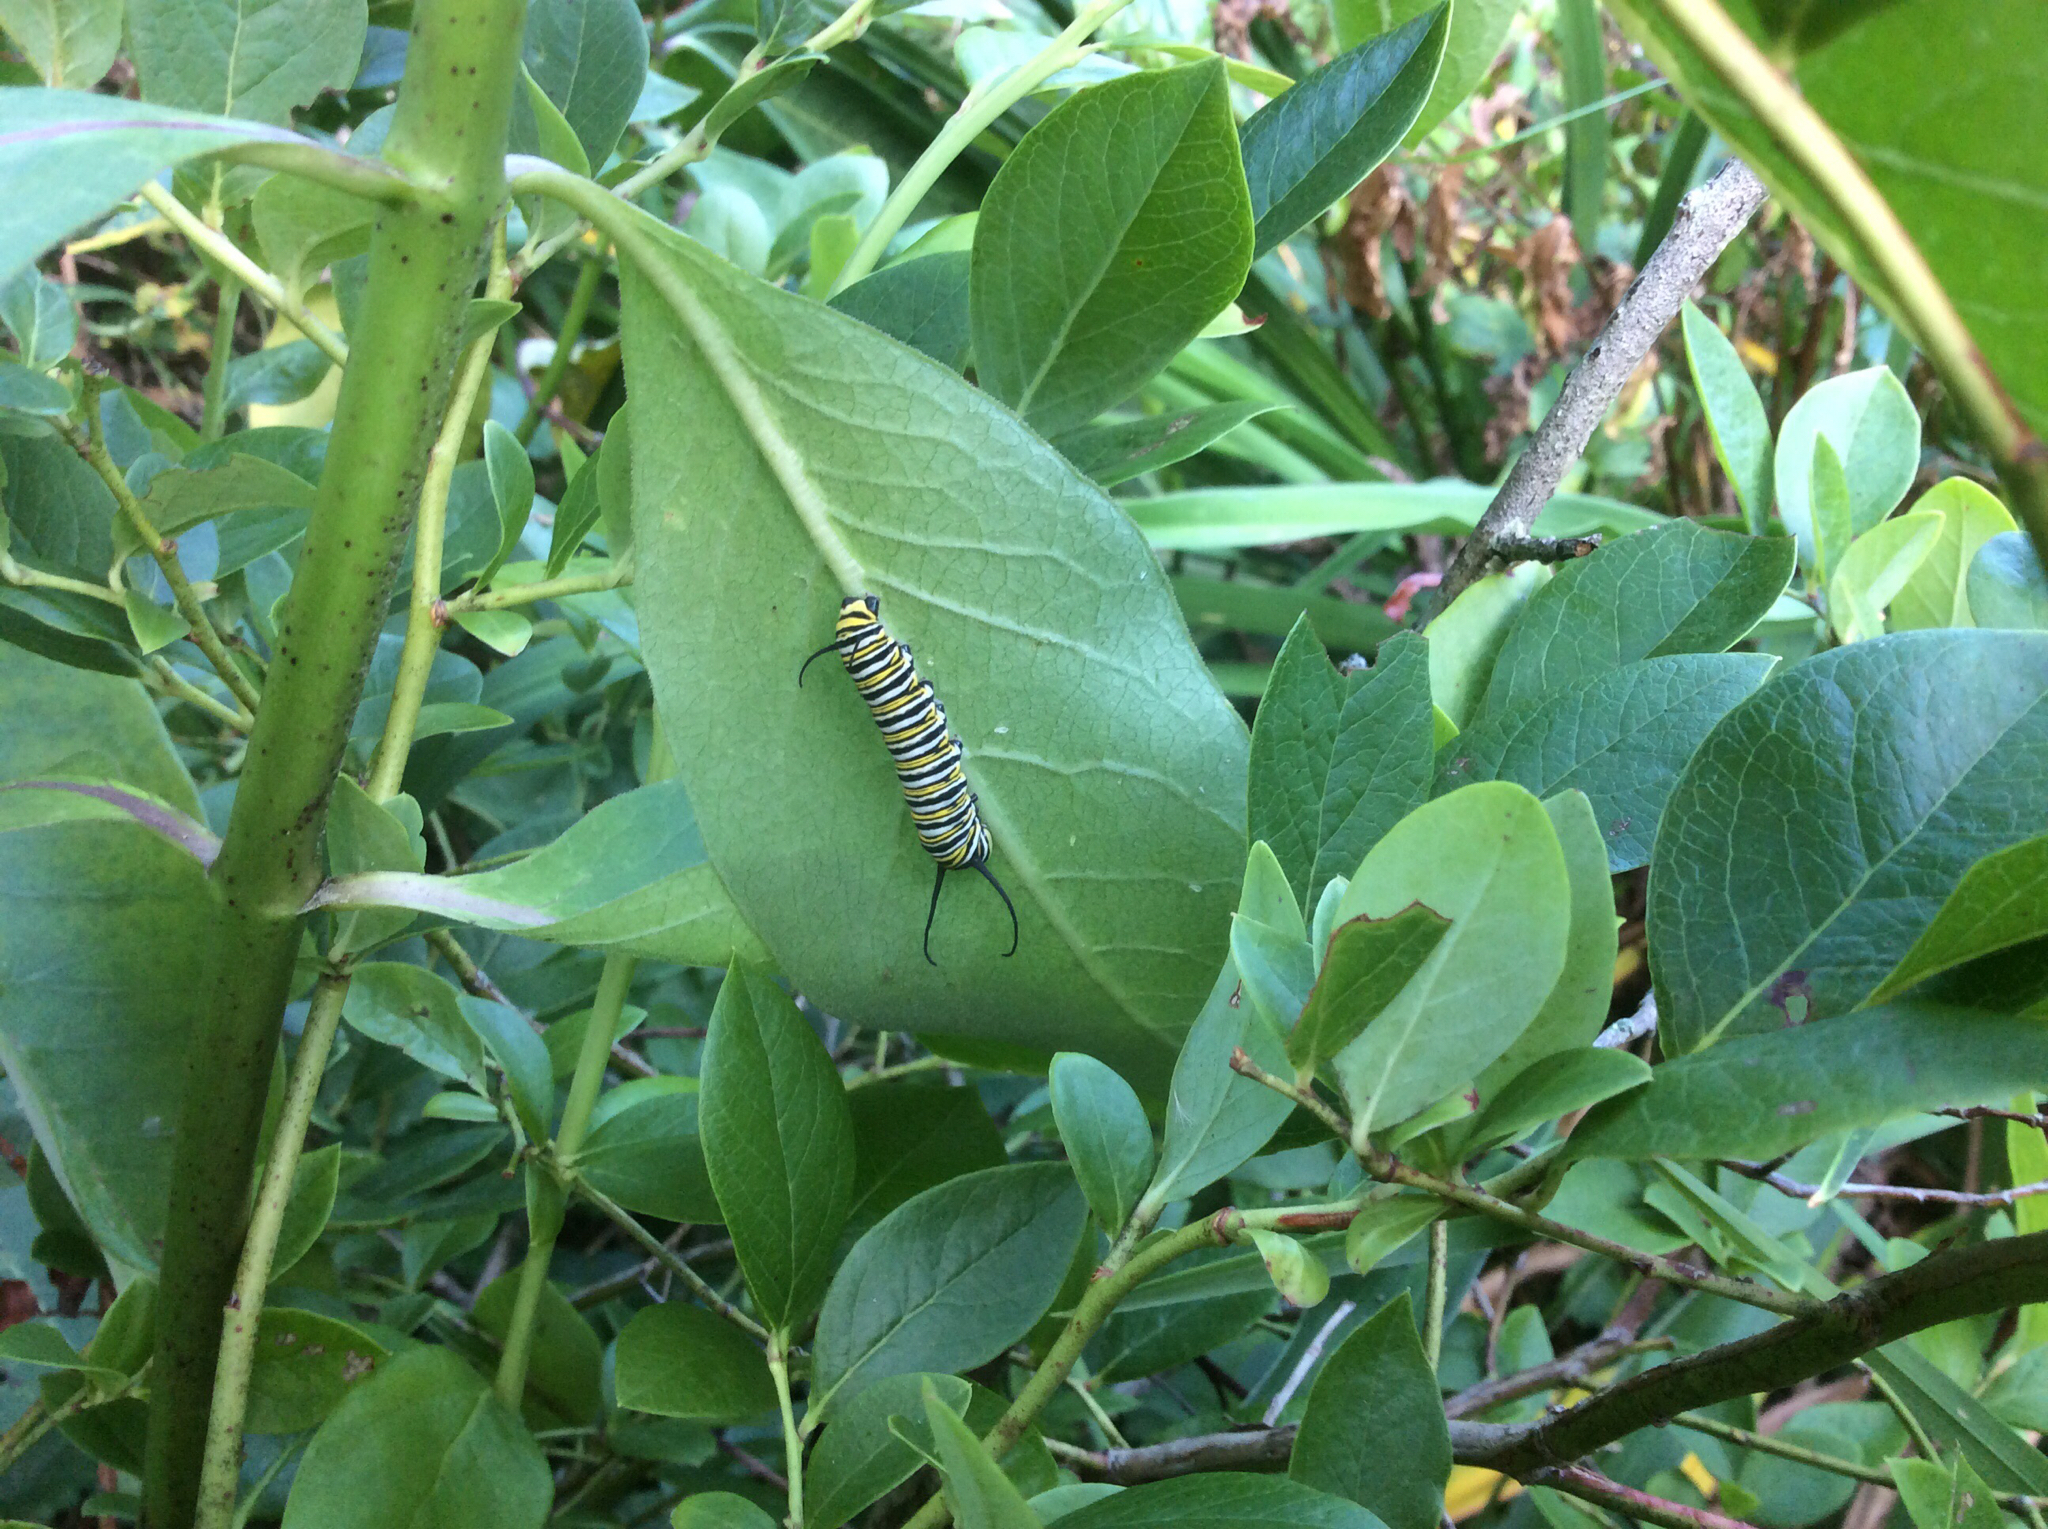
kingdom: Animalia
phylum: Arthropoda
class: Insecta
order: Lepidoptera
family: Nymphalidae
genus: Danaus
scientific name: Danaus plexippus
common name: Monarch
